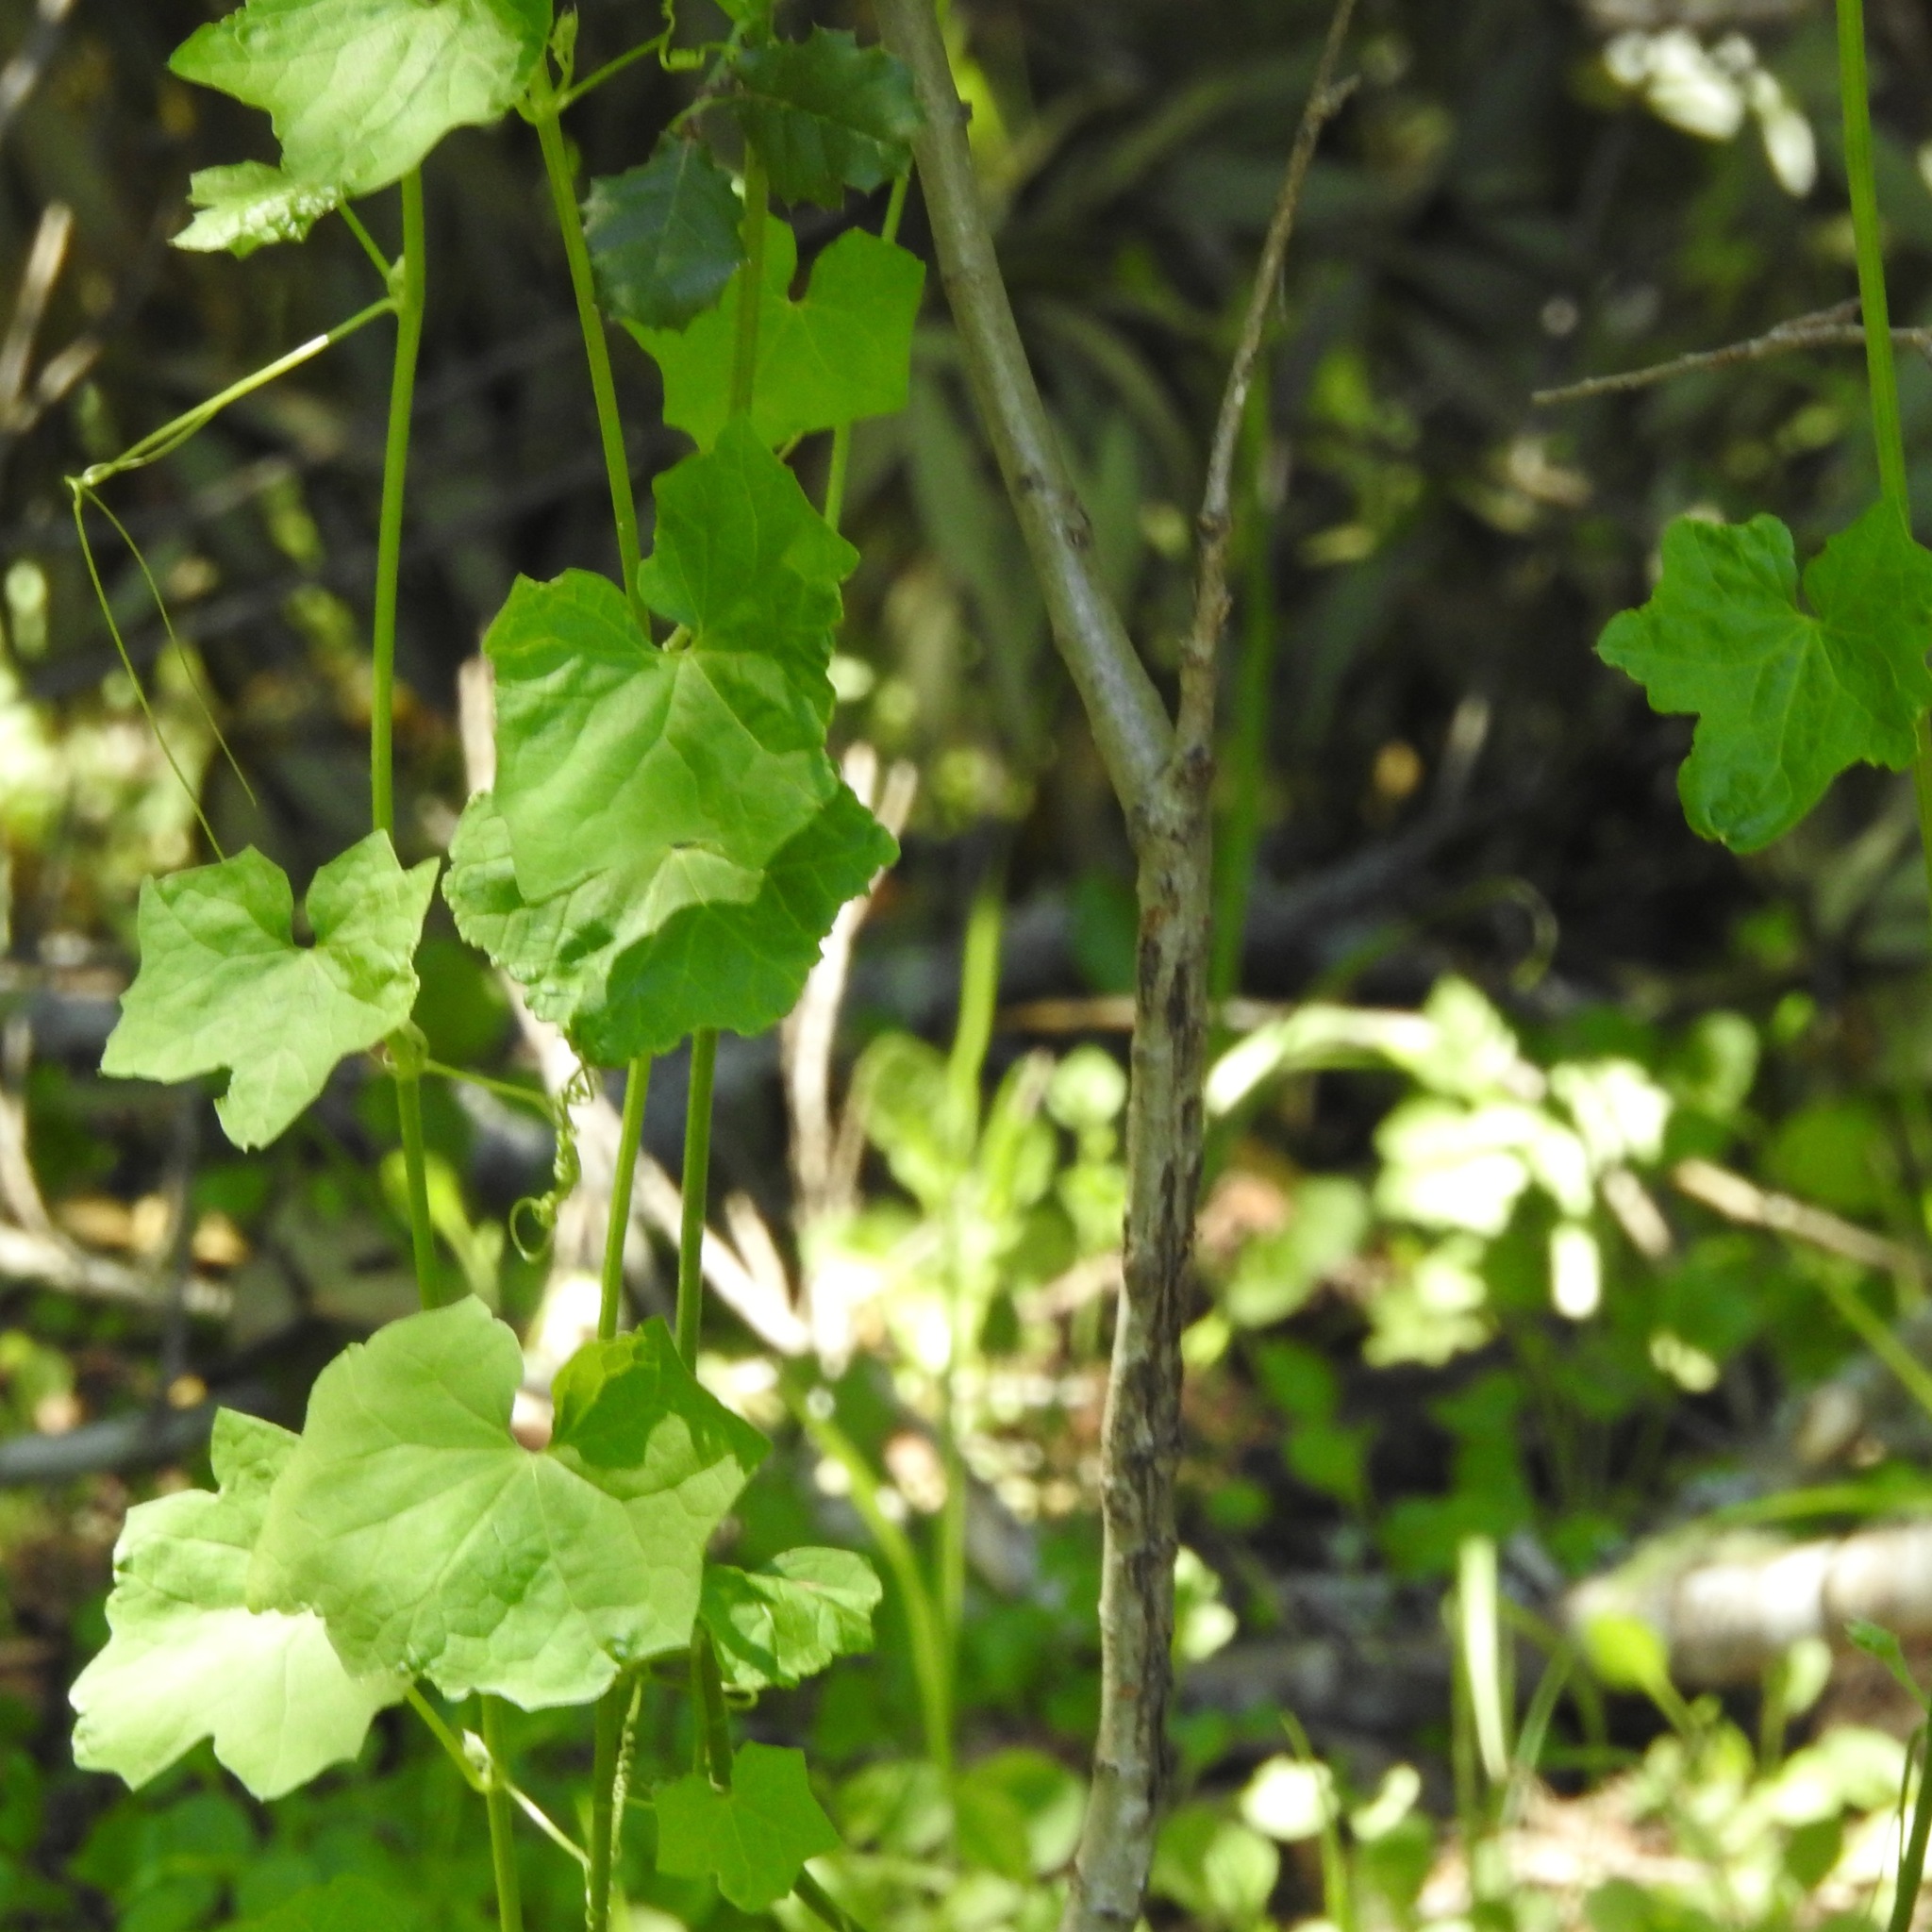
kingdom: Plantae
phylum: Tracheophyta
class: Magnoliopsida
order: Cucurbitales
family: Cucurbitaceae
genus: Marah
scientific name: Marah fabacea
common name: California manroot
